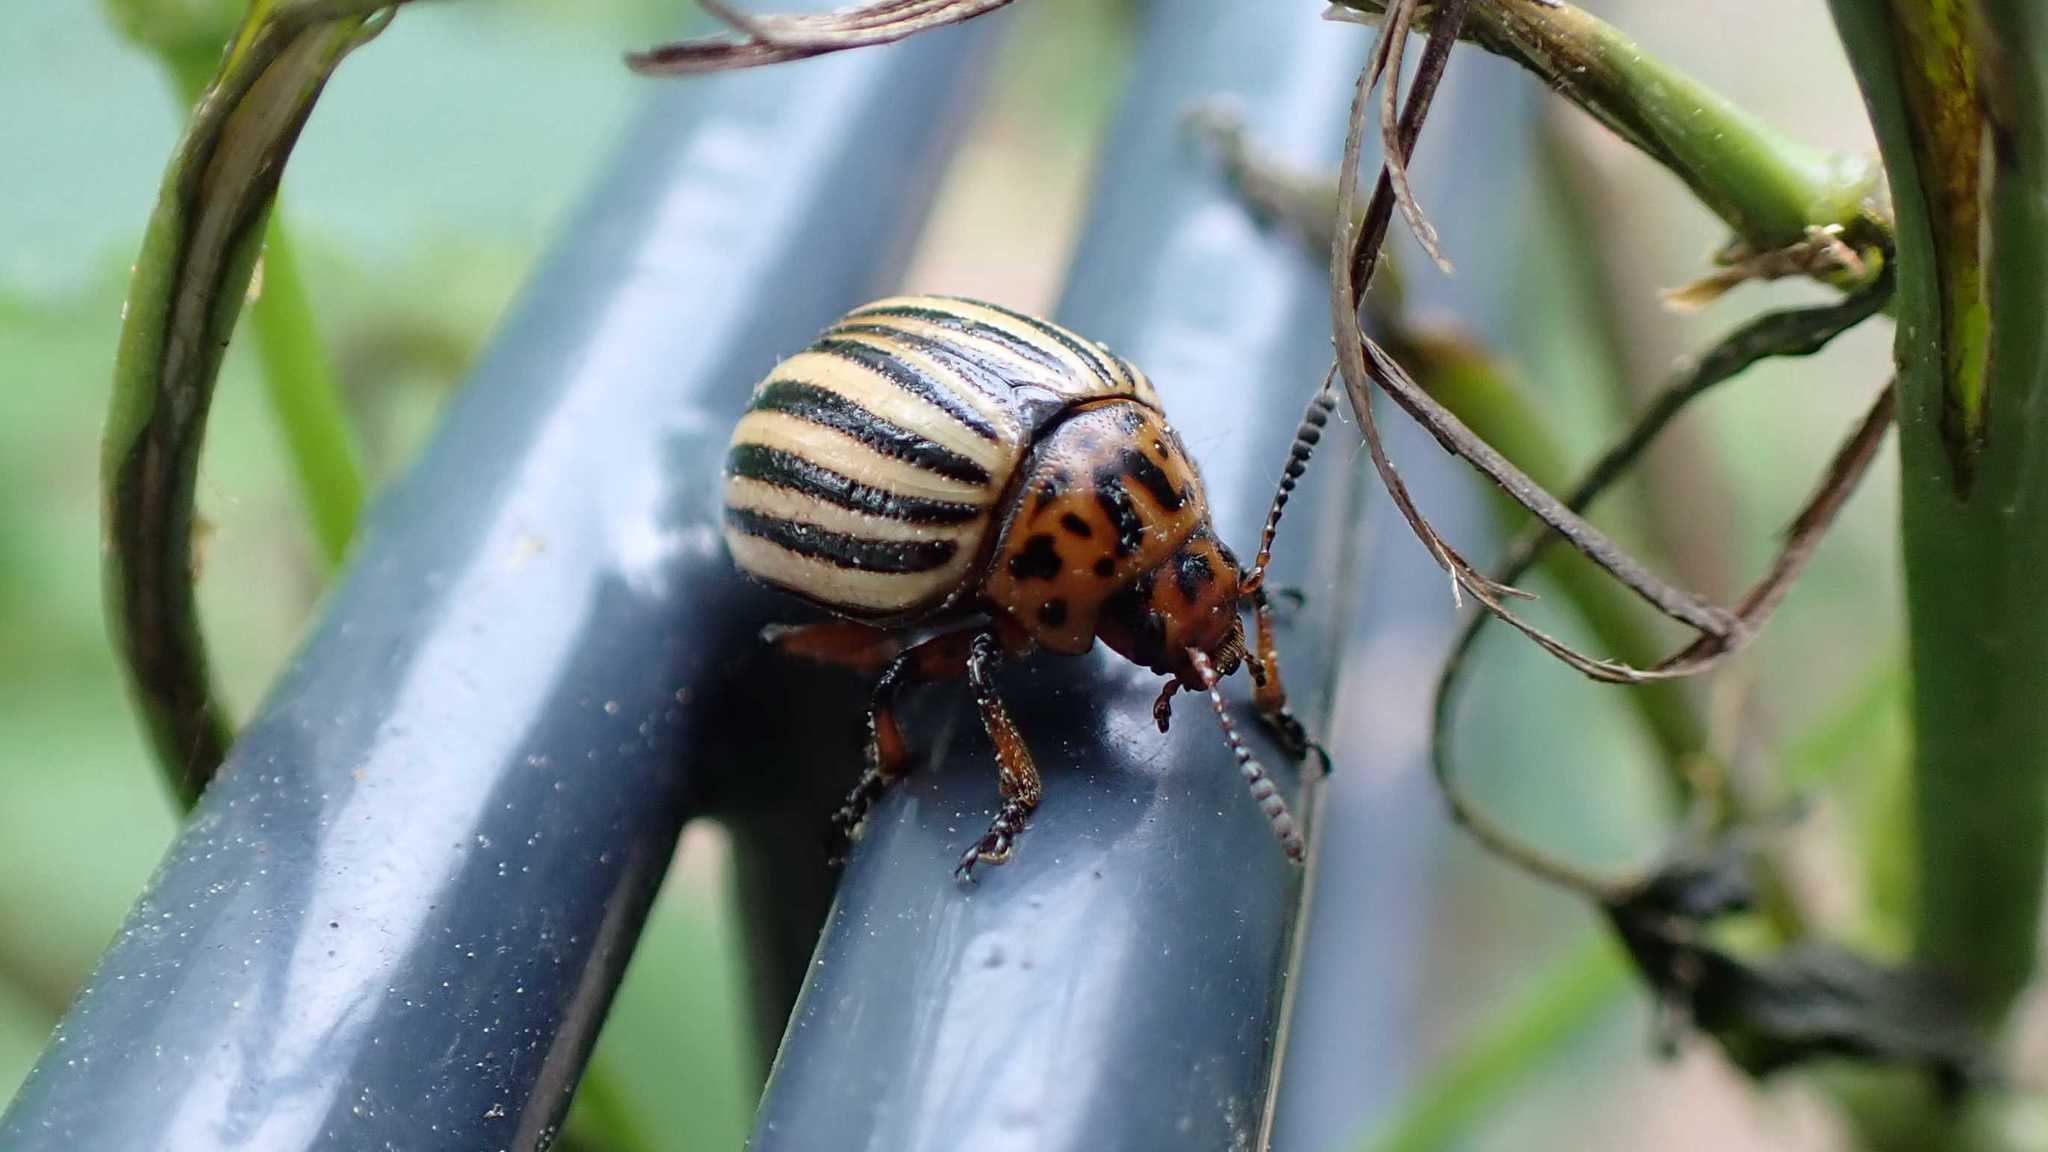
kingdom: Animalia
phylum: Arthropoda
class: Insecta
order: Coleoptera
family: Chrysomelidae
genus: Leptinotarsa
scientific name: Leptinotarsa decemlineata
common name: Colorado potato beetle
